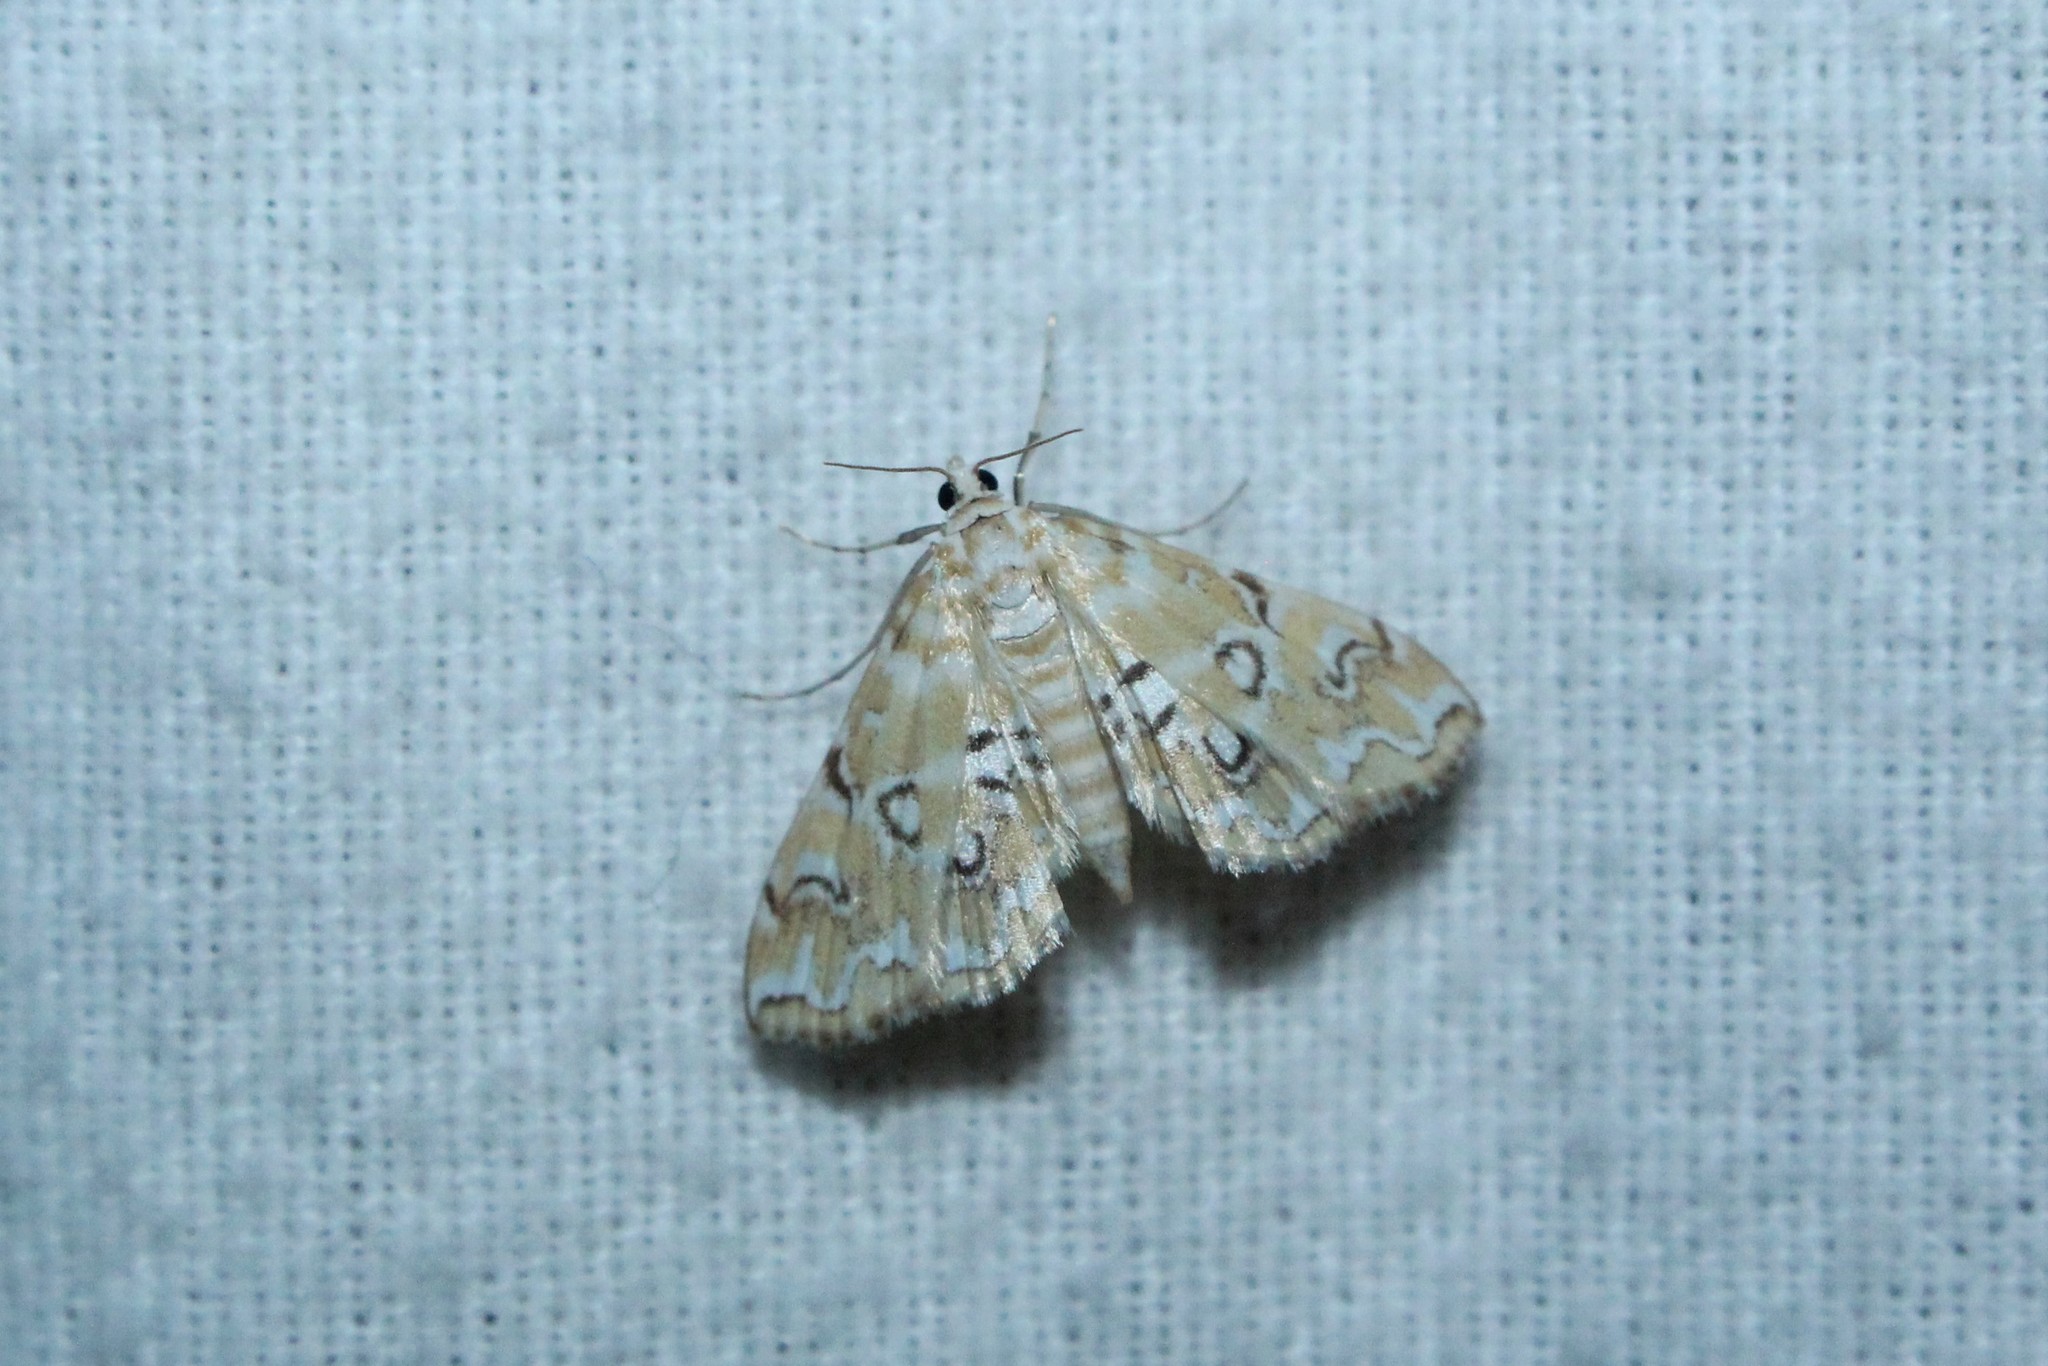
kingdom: Animalia
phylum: Arthropoda
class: Insecta
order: Lepidoptera
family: Crambidae
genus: Elophila
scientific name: Elophila icciusalis
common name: Pondside pyralid moth
